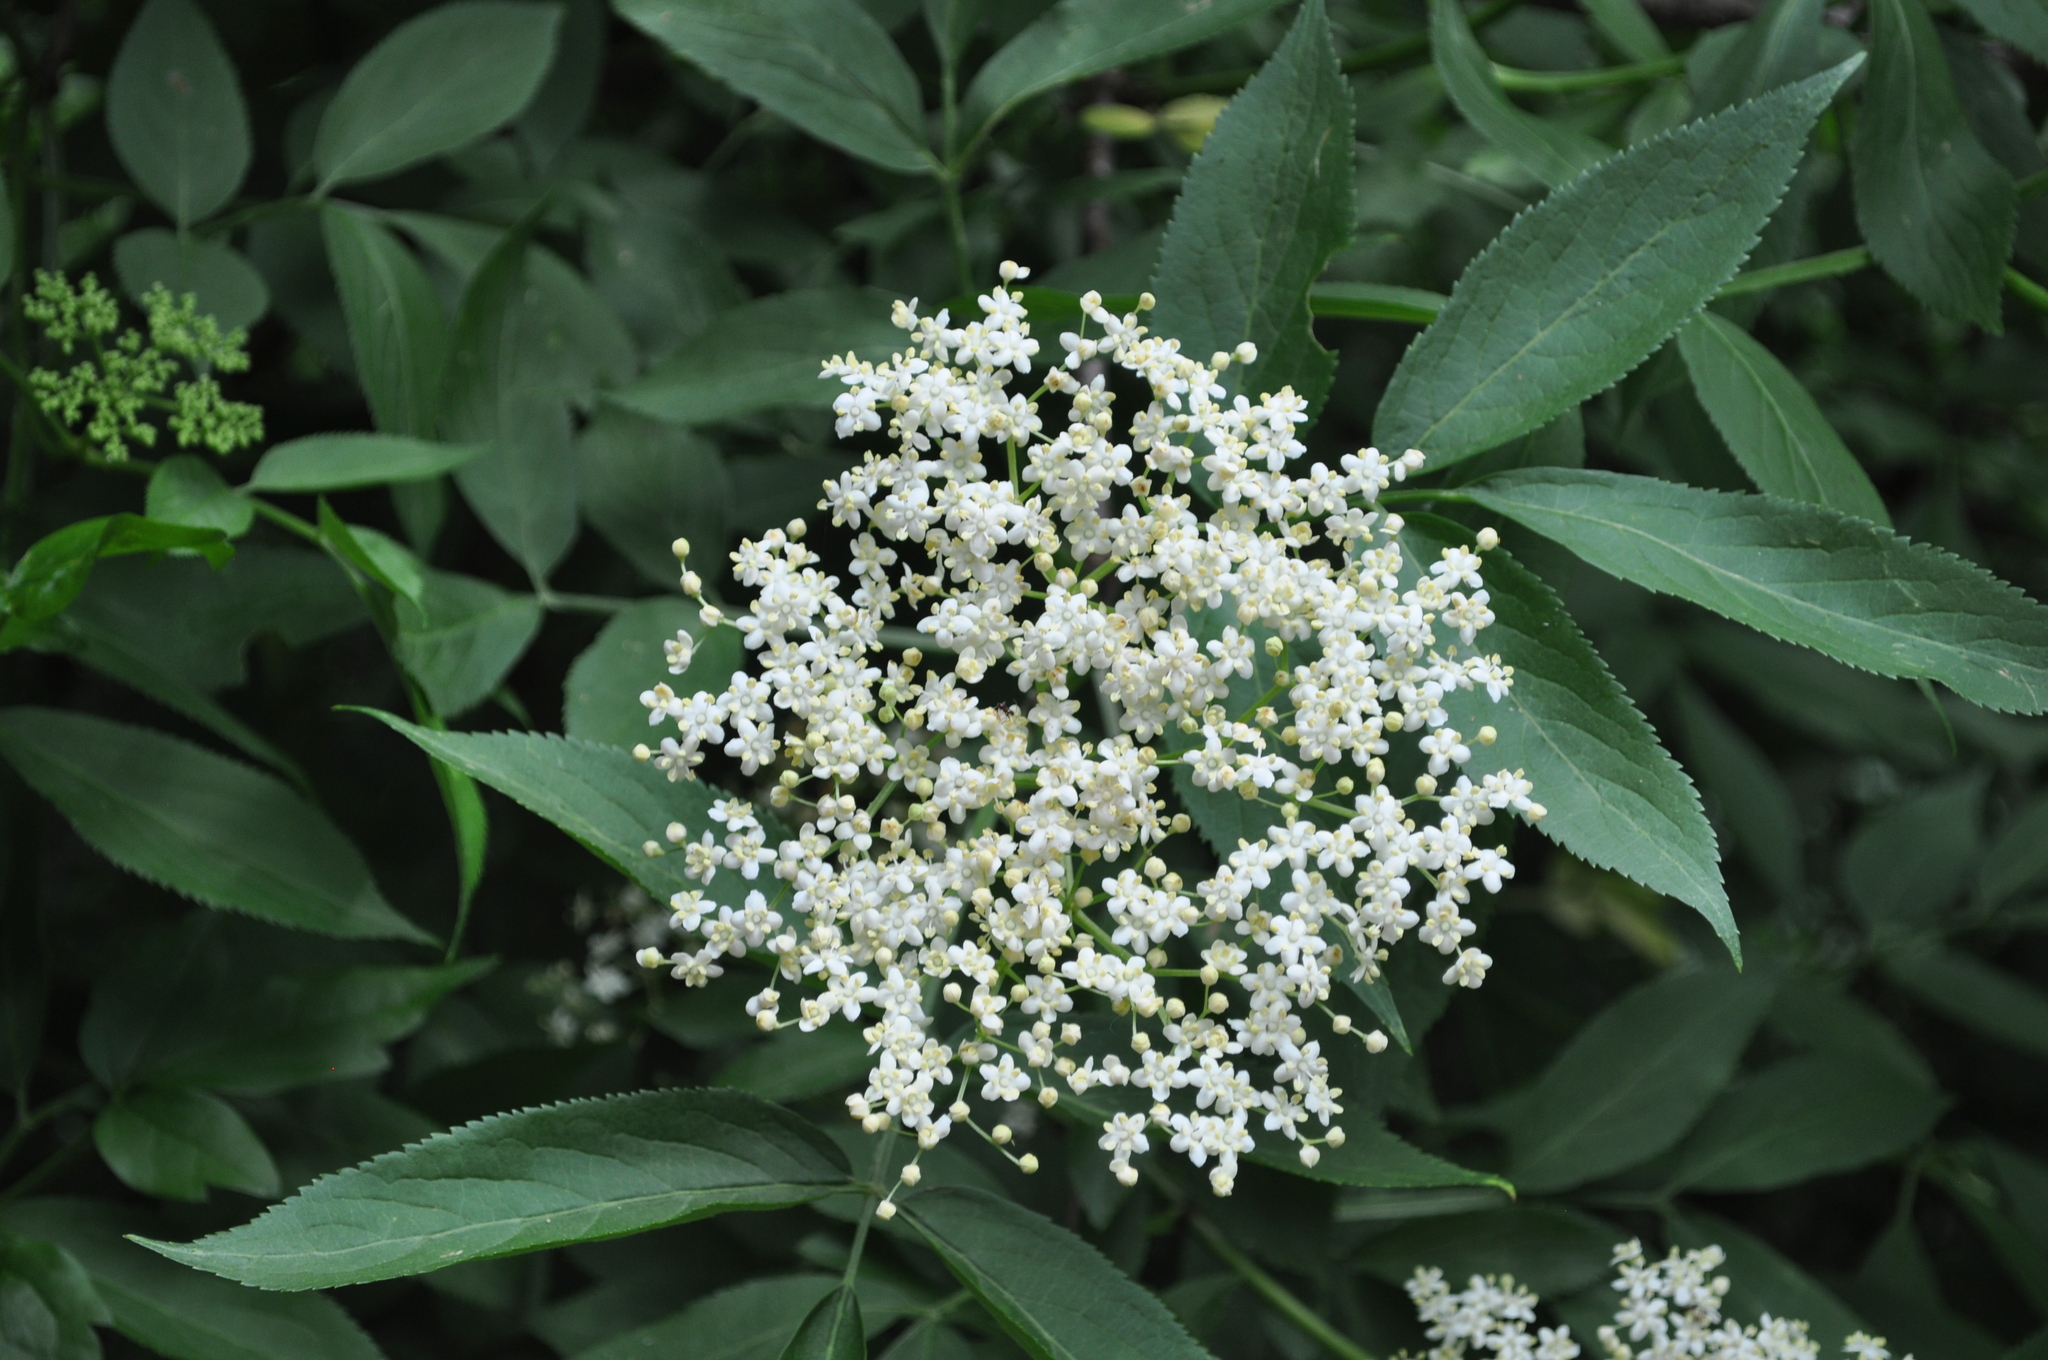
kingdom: Plantae
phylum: Tracheophyta
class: Magnoliopsida
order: Dipsacales
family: Viburnaceae
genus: Sambucus
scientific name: Sambucus nigra
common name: Elder
